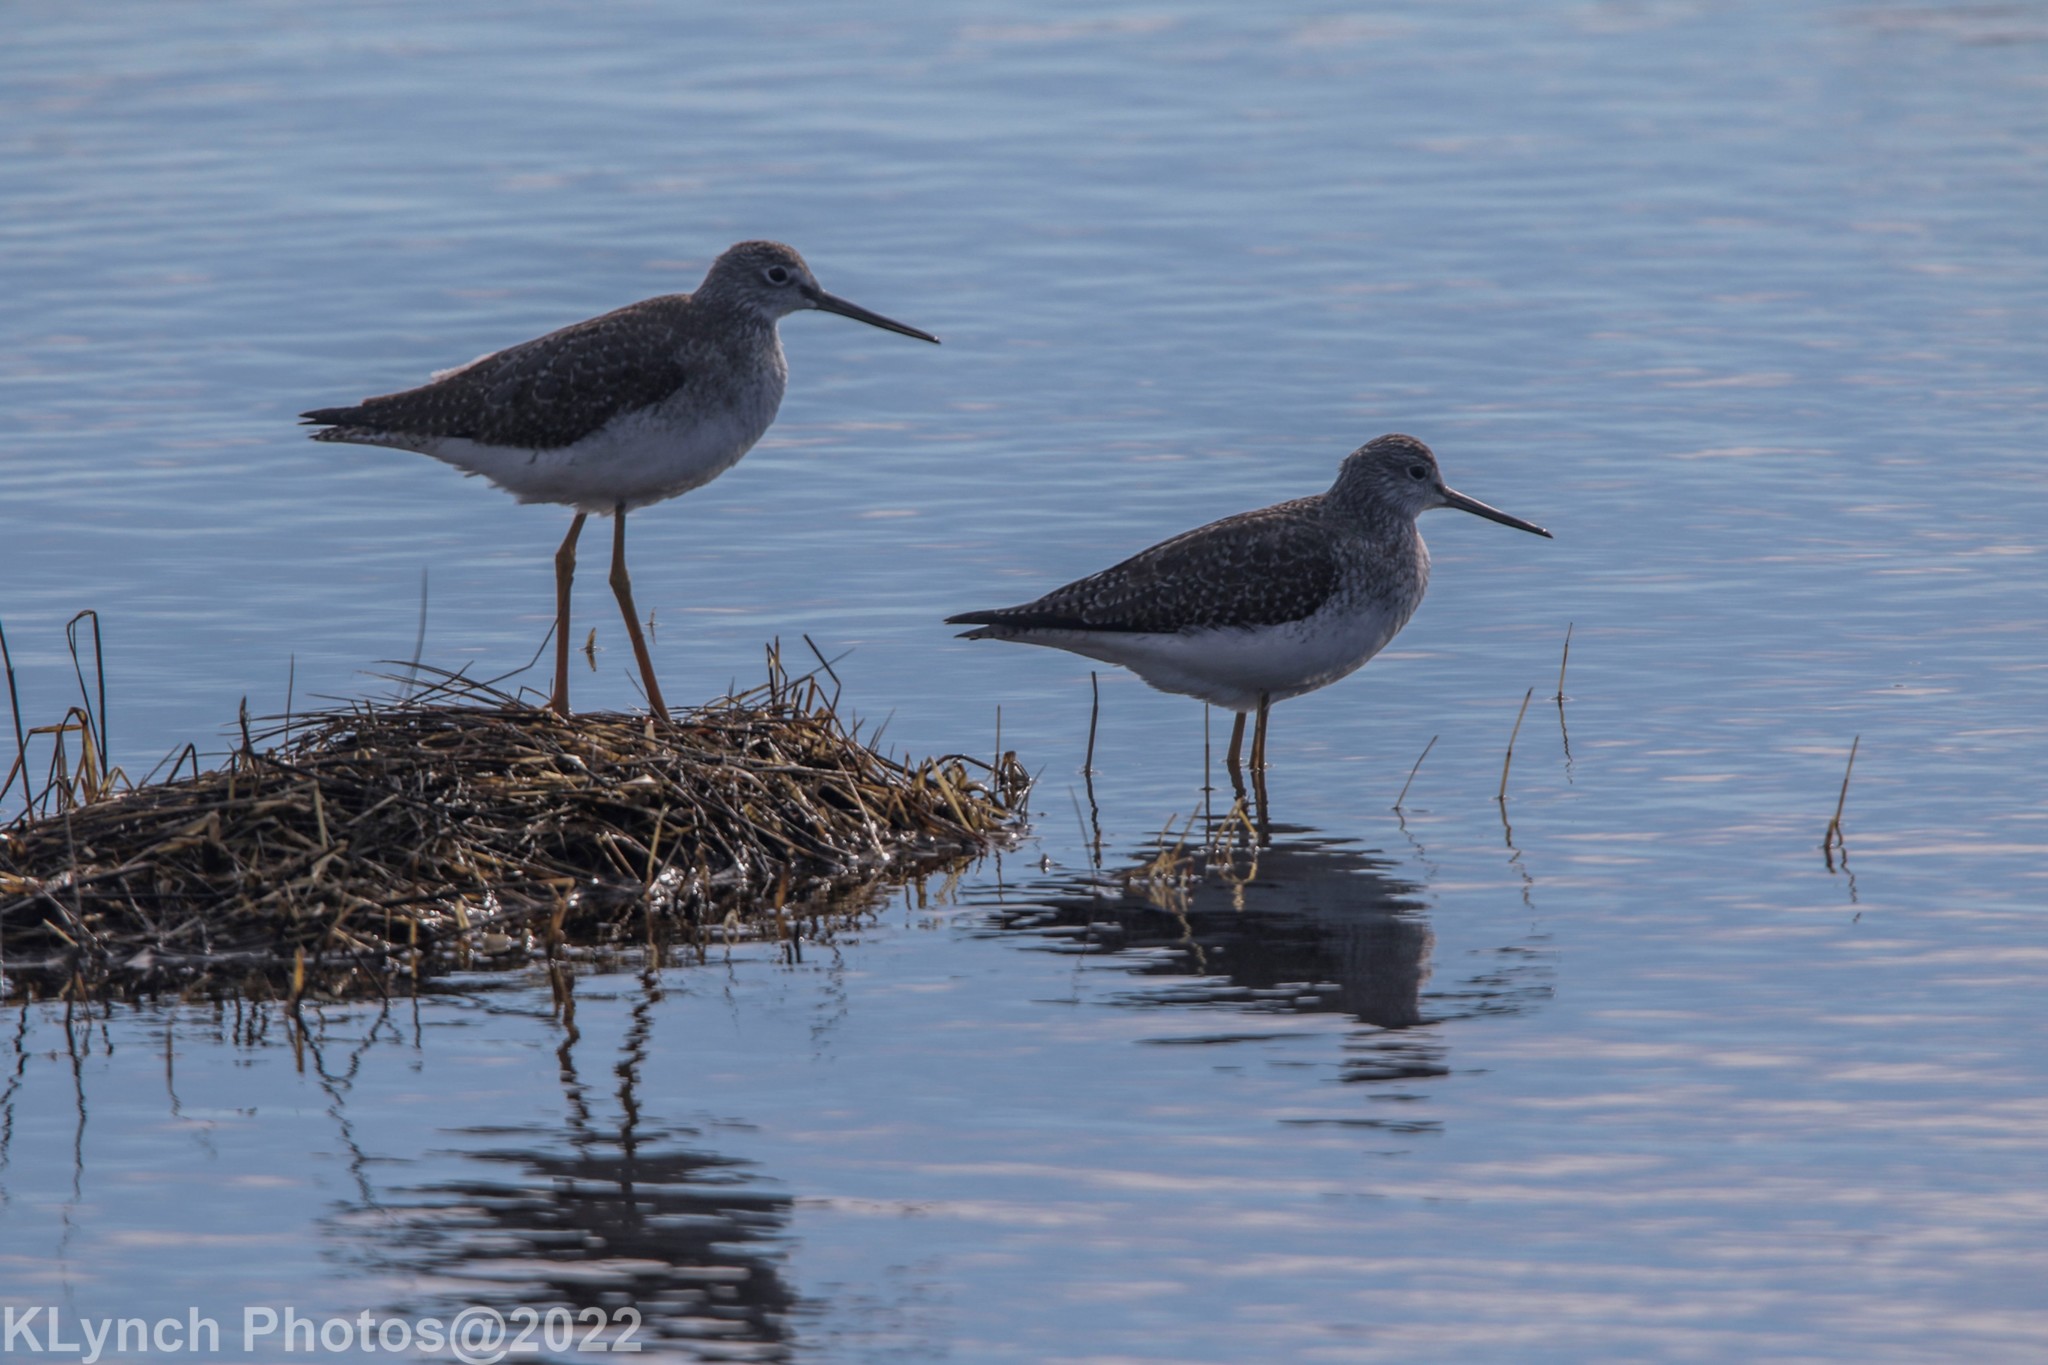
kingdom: Animalia
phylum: Chordata
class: Aves
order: Charadriiformes
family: Scolopacidae
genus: Tringa
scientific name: Tringa melanoleuca
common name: Greater yellowlegs
